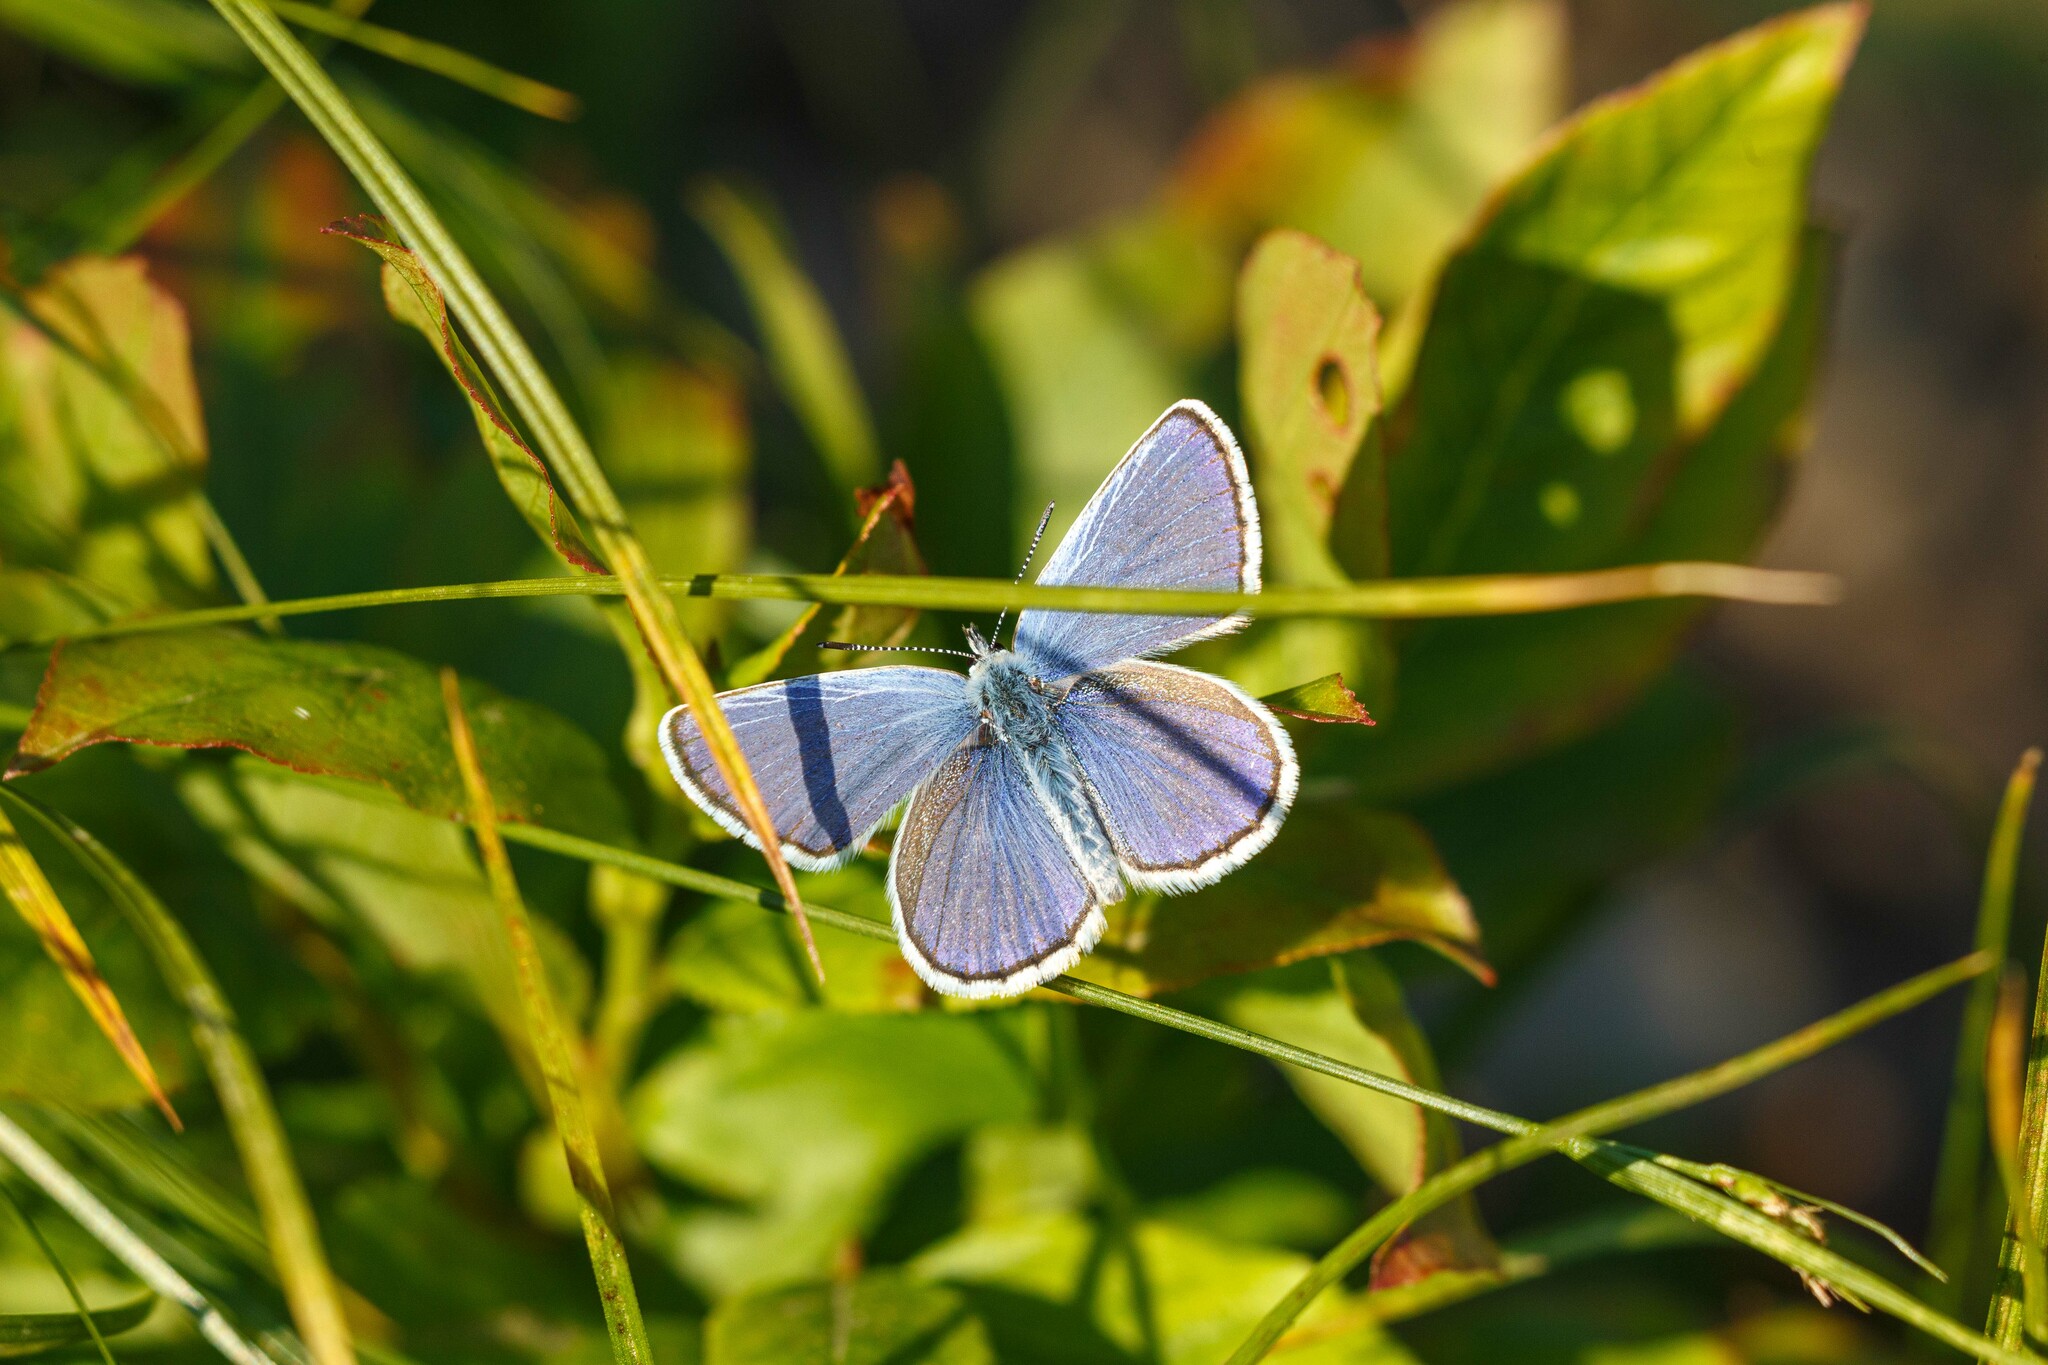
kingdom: Animalia
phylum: Arthropoda
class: Insecta
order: Lepidoptera
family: Lycaenidae
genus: Lycaeides
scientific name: Lycaeides anna
